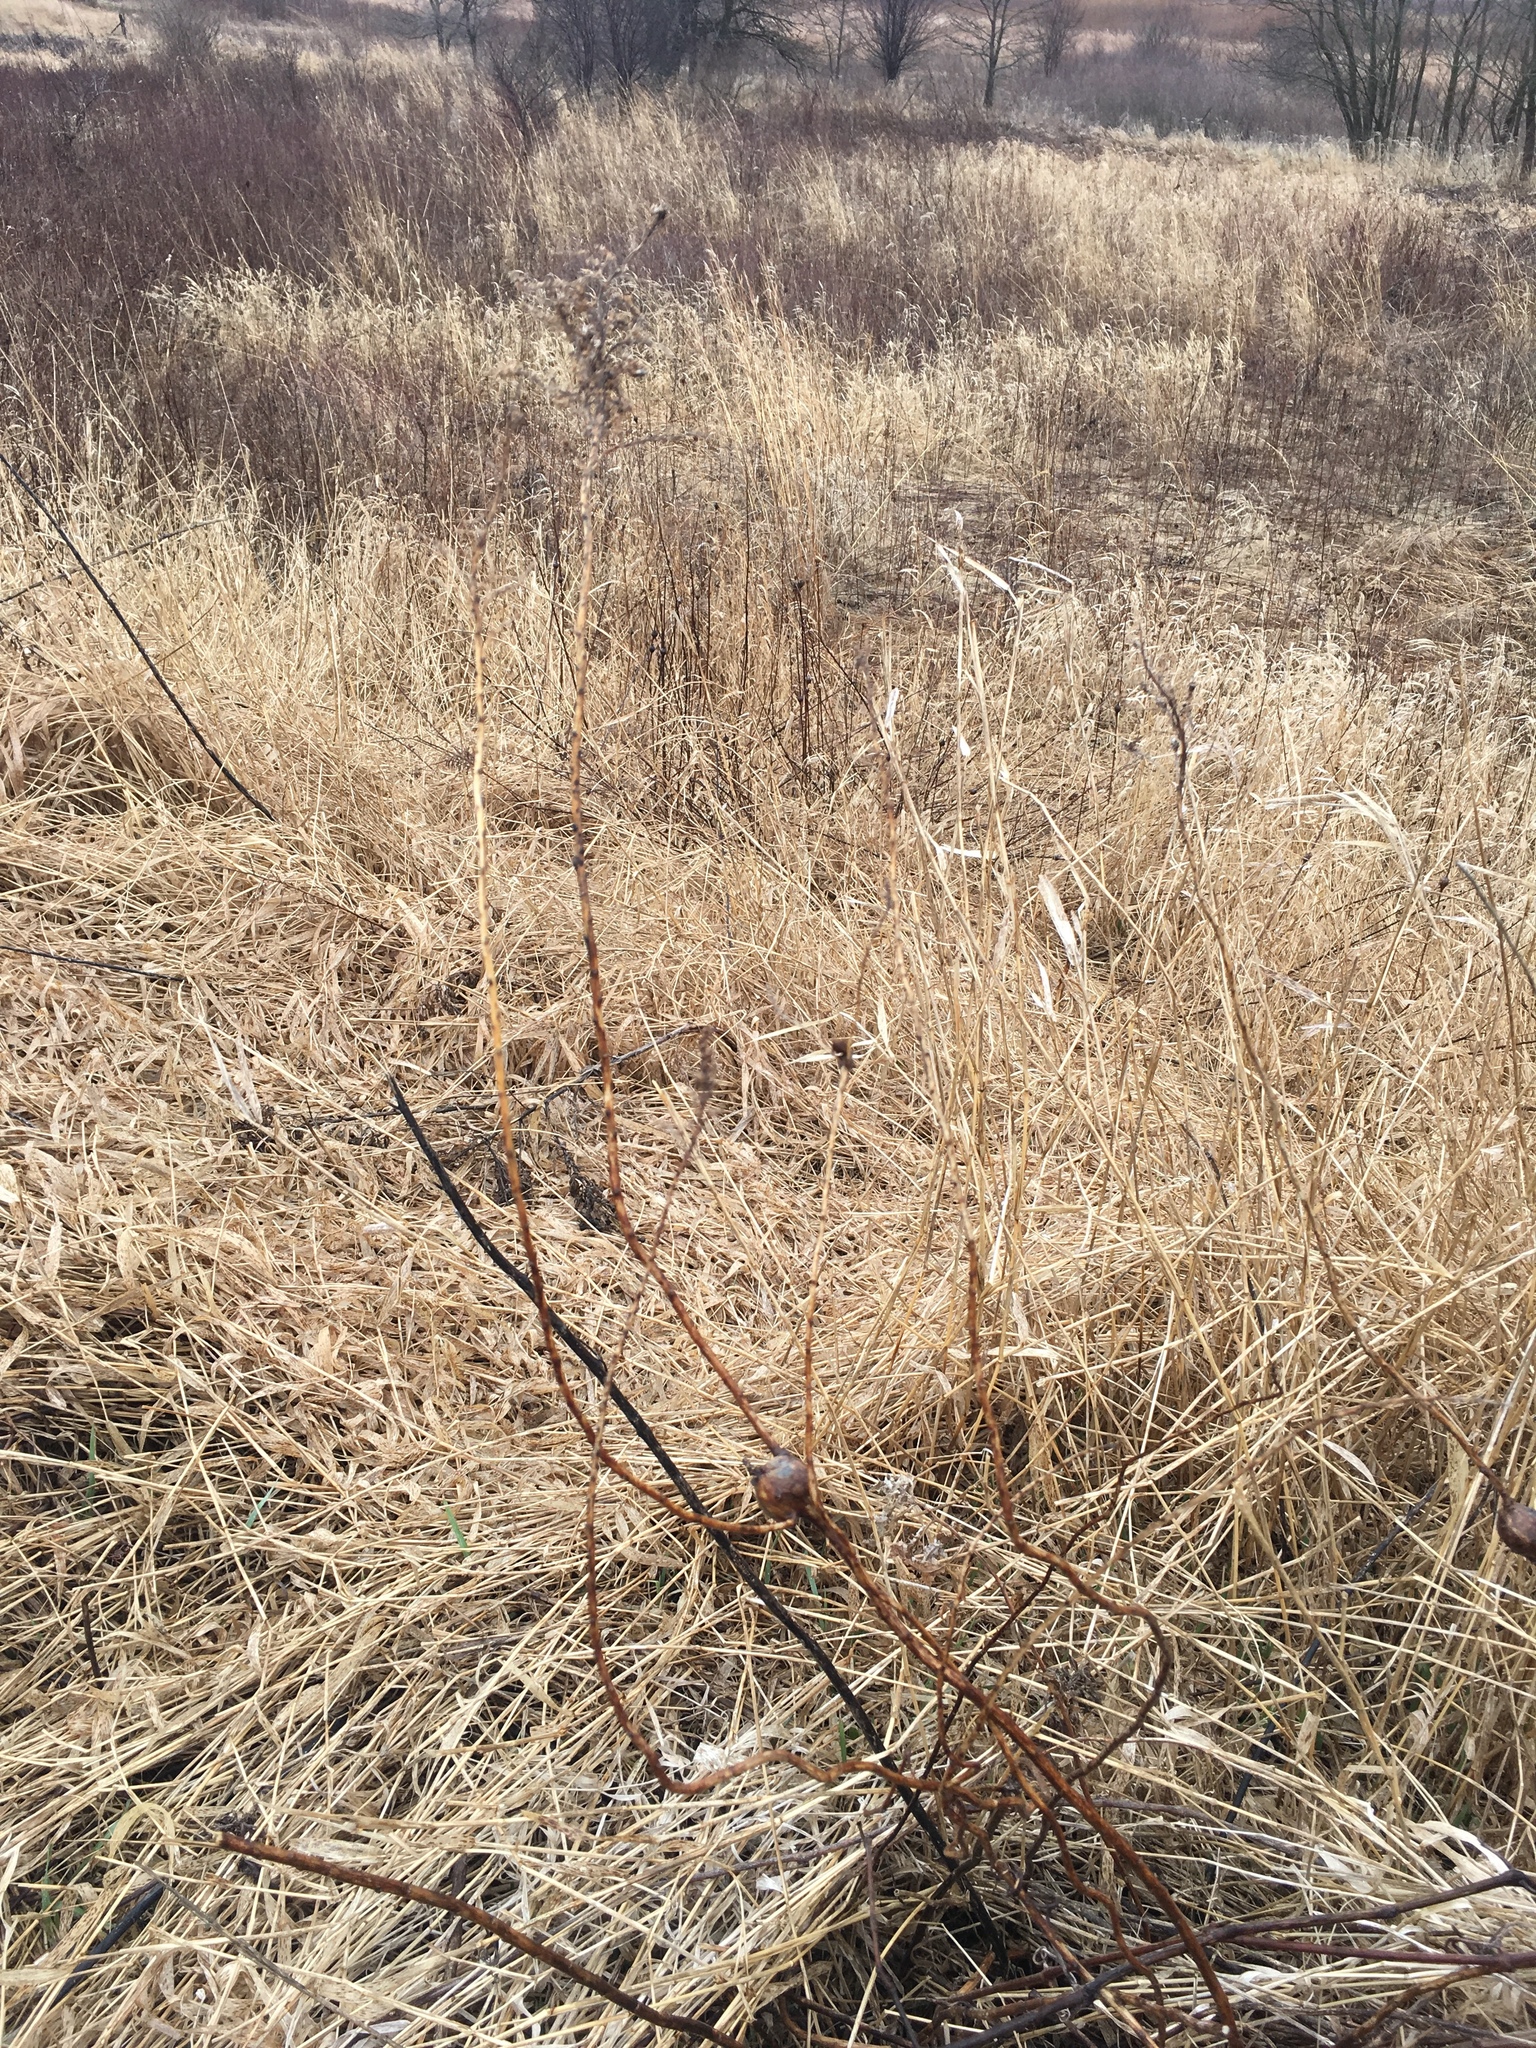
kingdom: Animalia
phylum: Arthropoda
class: Insecta
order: Diptera
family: Tephritidae
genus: Eurosta
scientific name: Eurosta solidaginis
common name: Goldenrod gall fly
